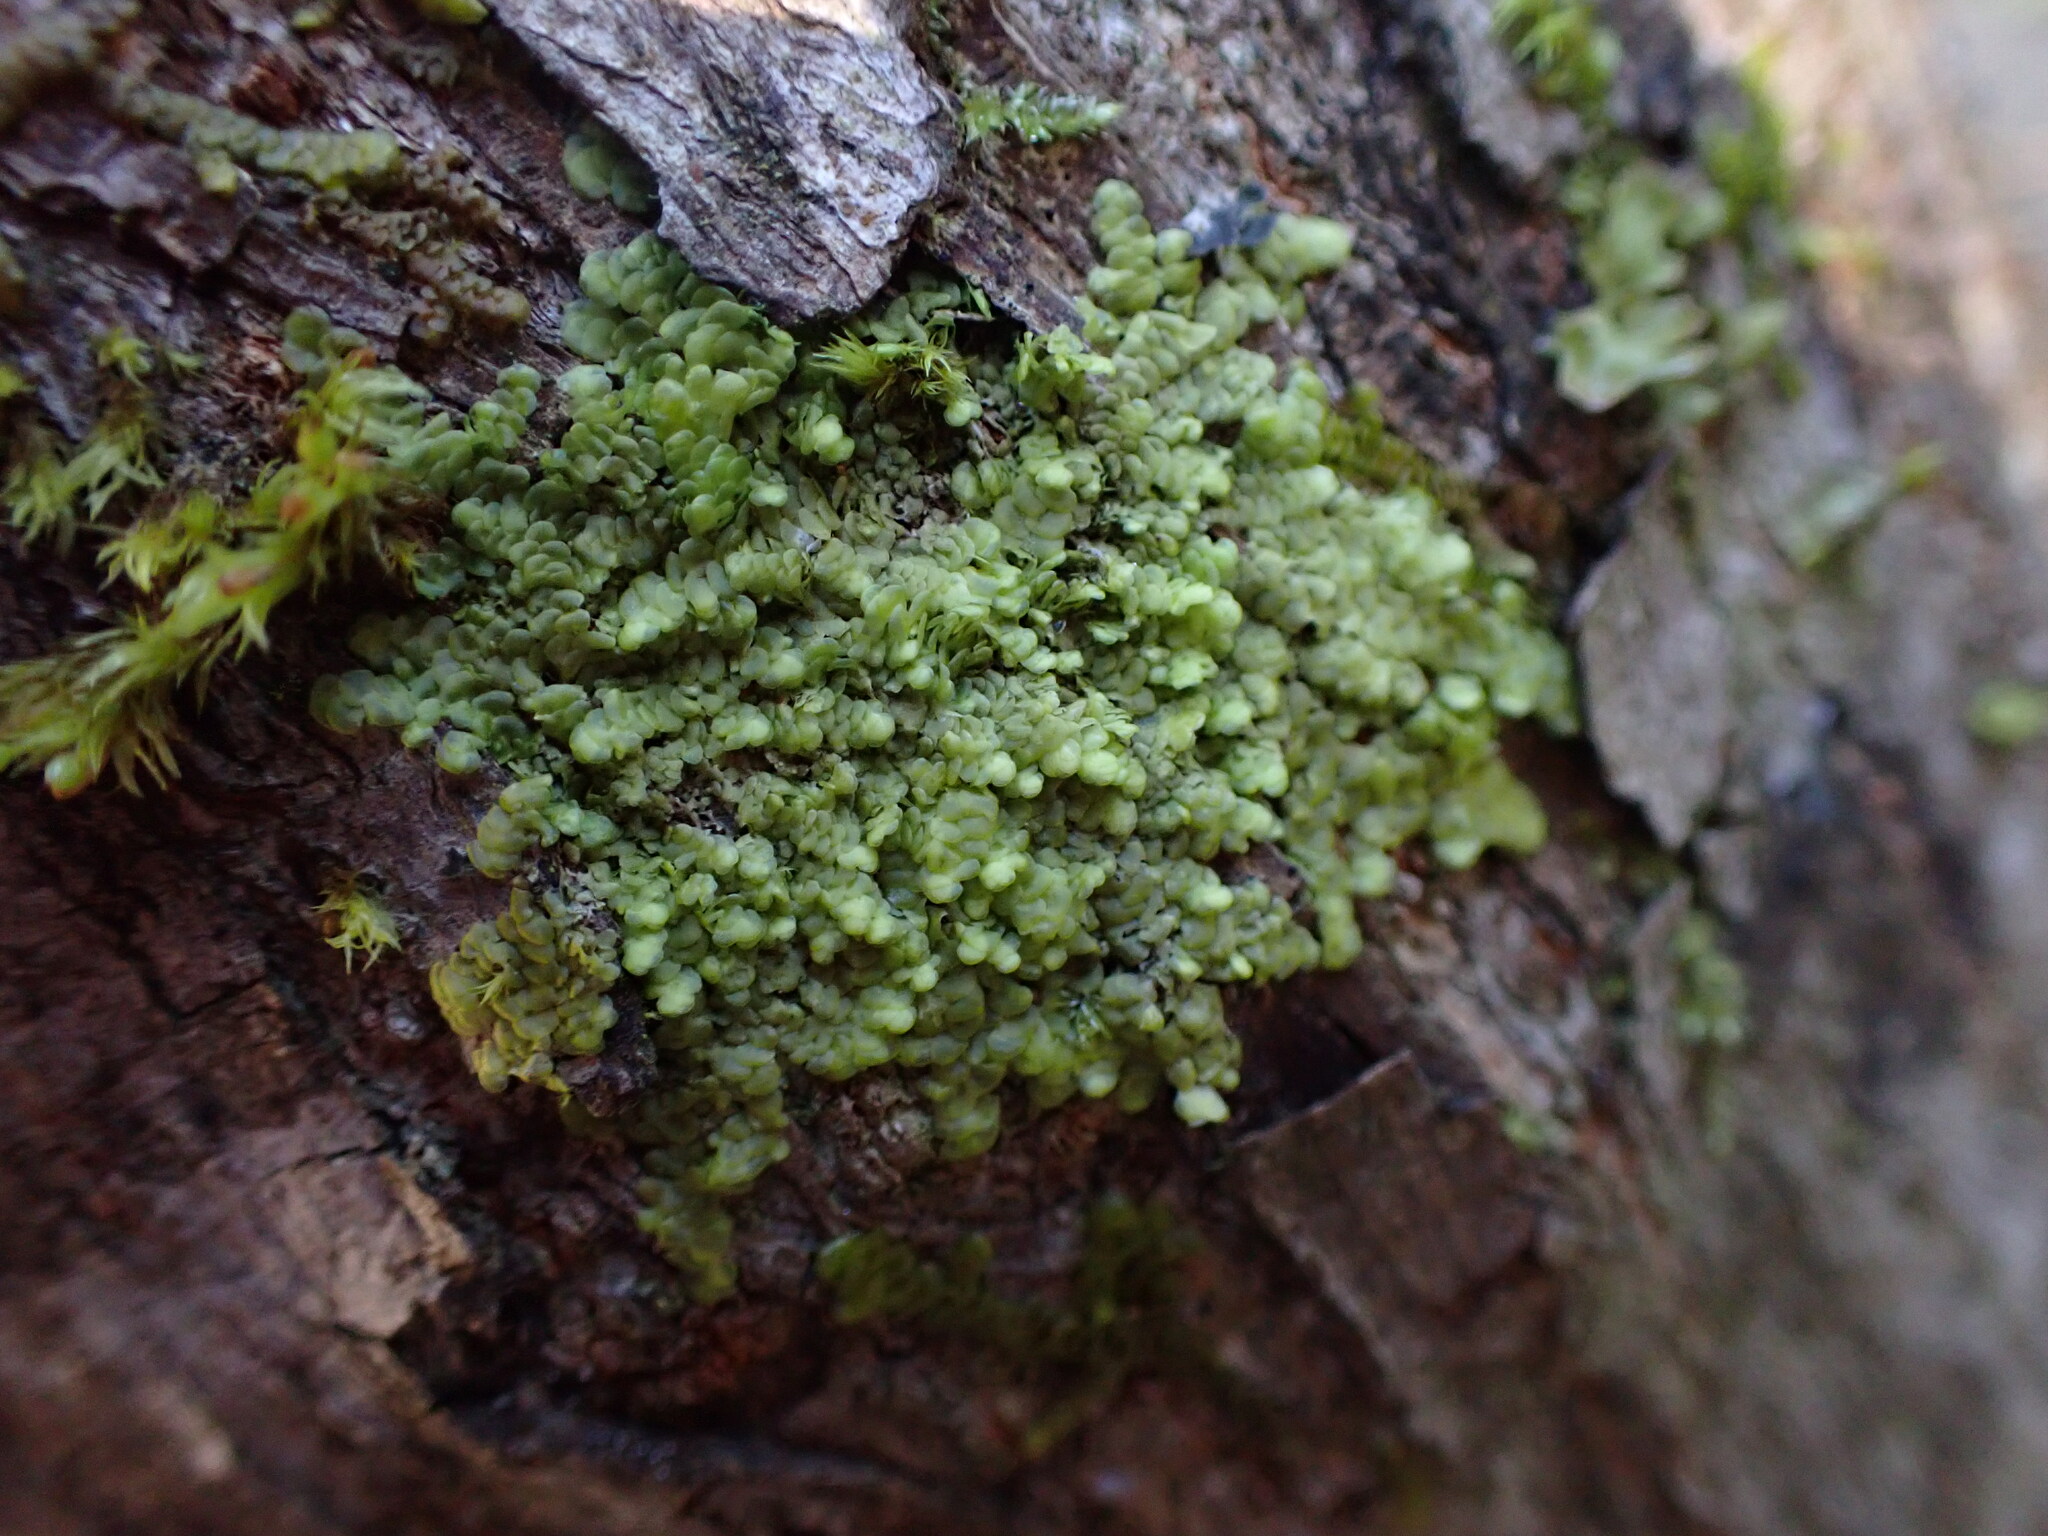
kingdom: Plantae
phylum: Marchantiophyta
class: Jungermanniopsida
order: Porellales
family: Radulaceae
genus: Radula
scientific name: Radula complanata
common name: Flat-leaved scalewort
